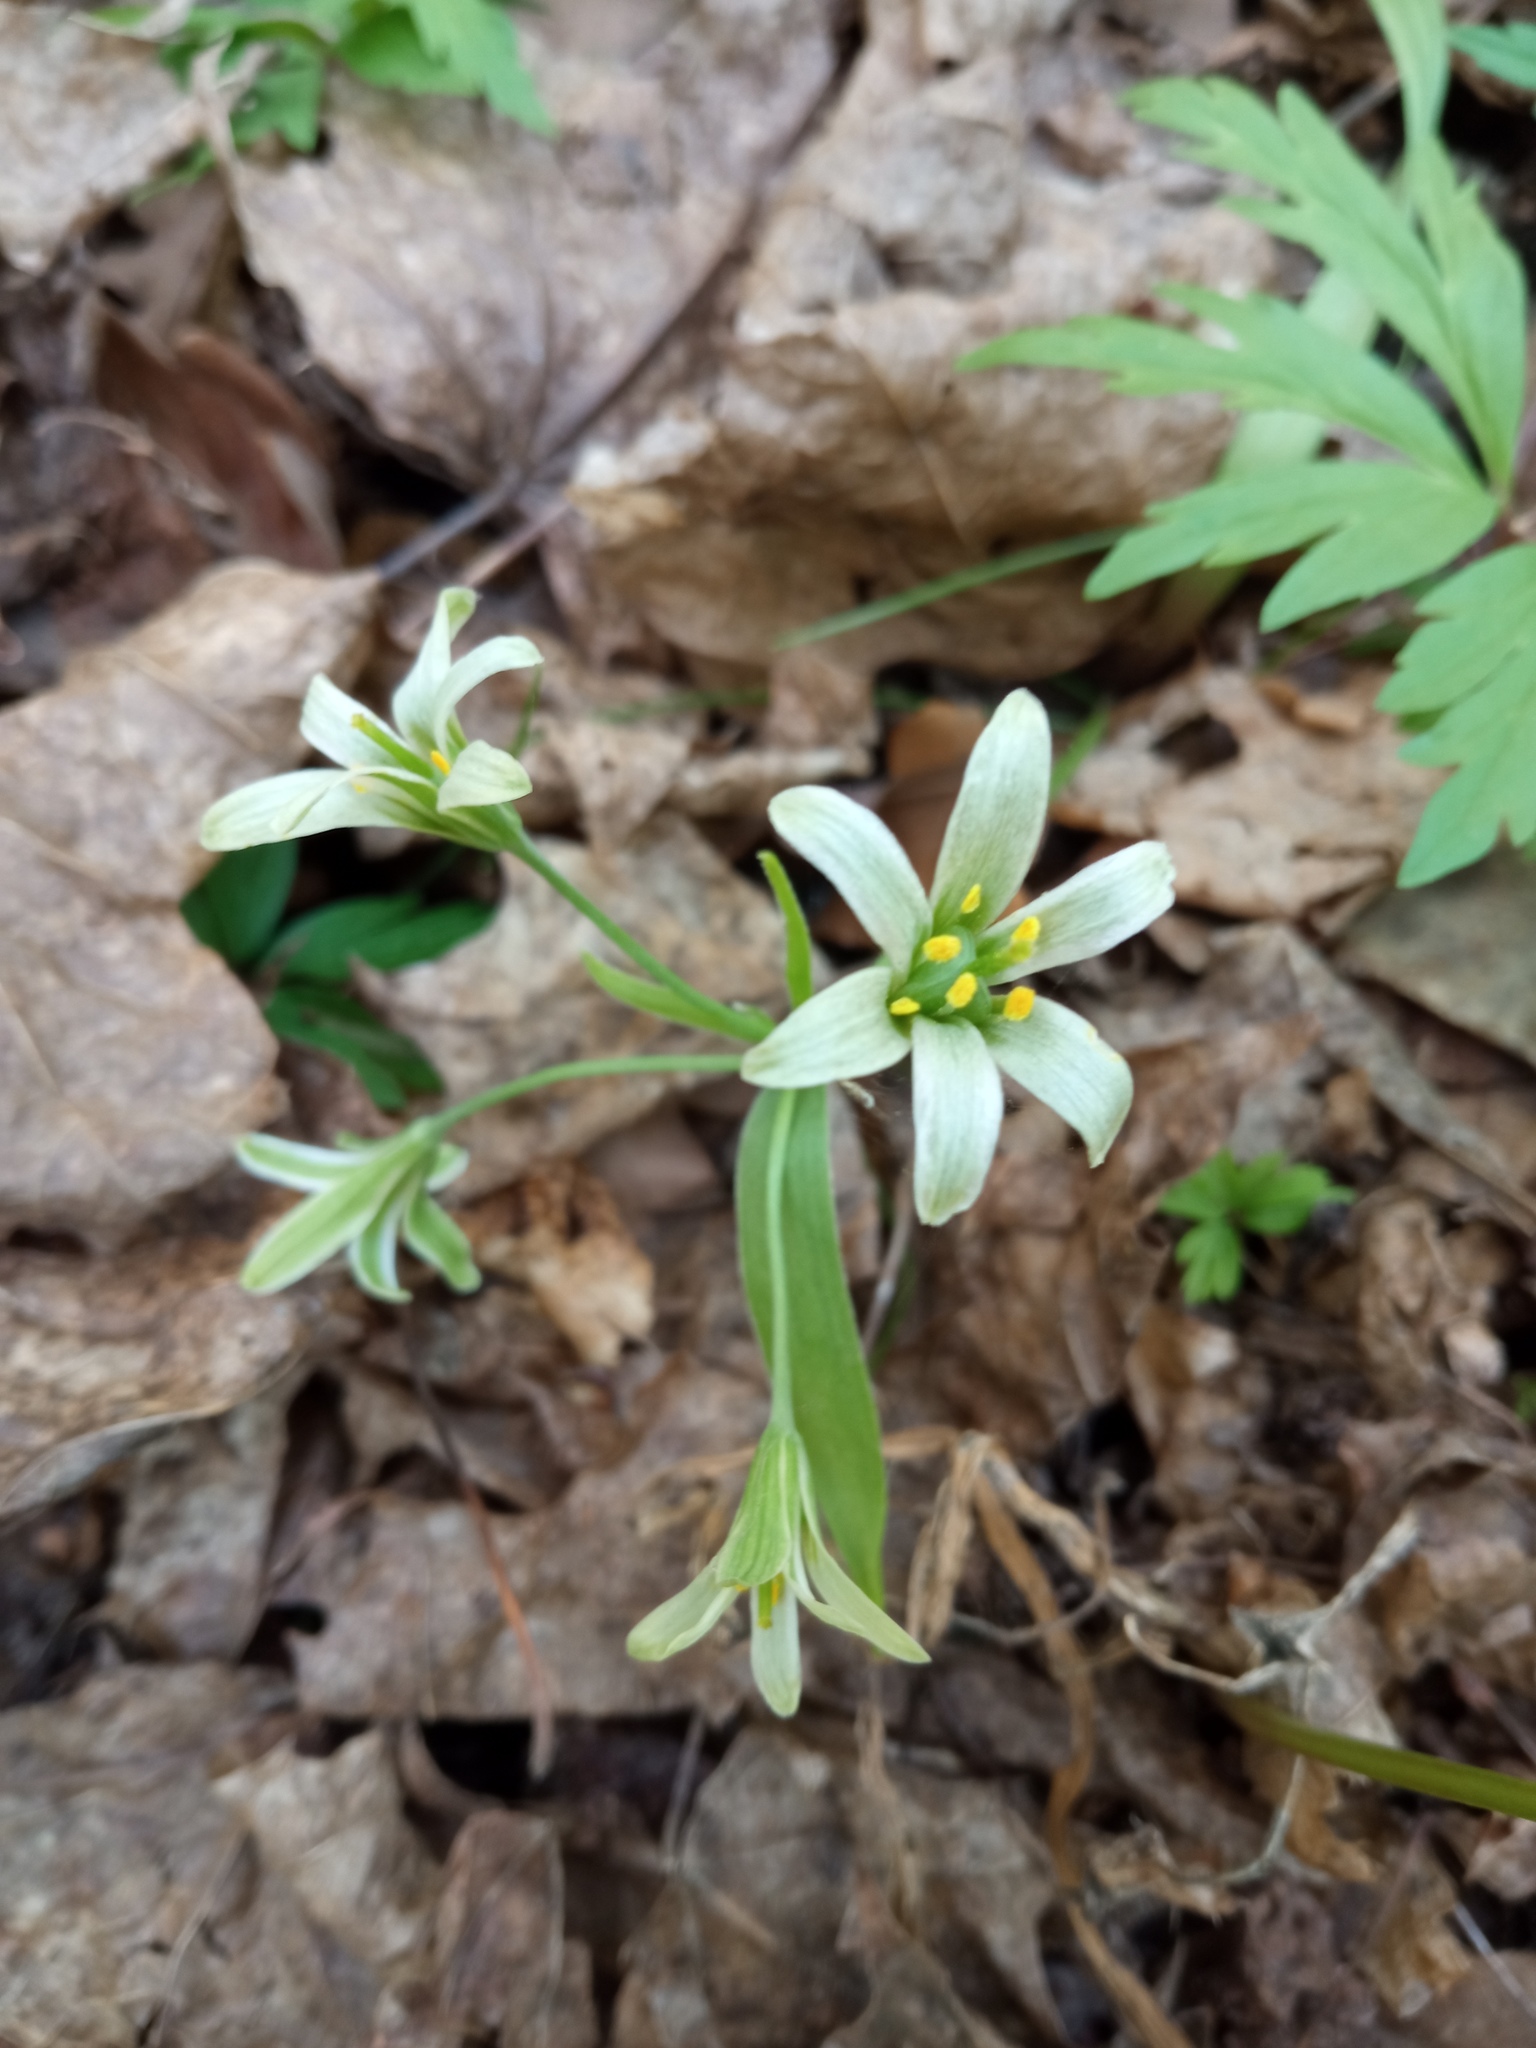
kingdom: Plantae
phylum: Tracheophyta
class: Liliopsida
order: Liliales
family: Liliaceae
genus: Gagea
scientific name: Gagea lutea
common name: Yellow star-of-bethlehem
